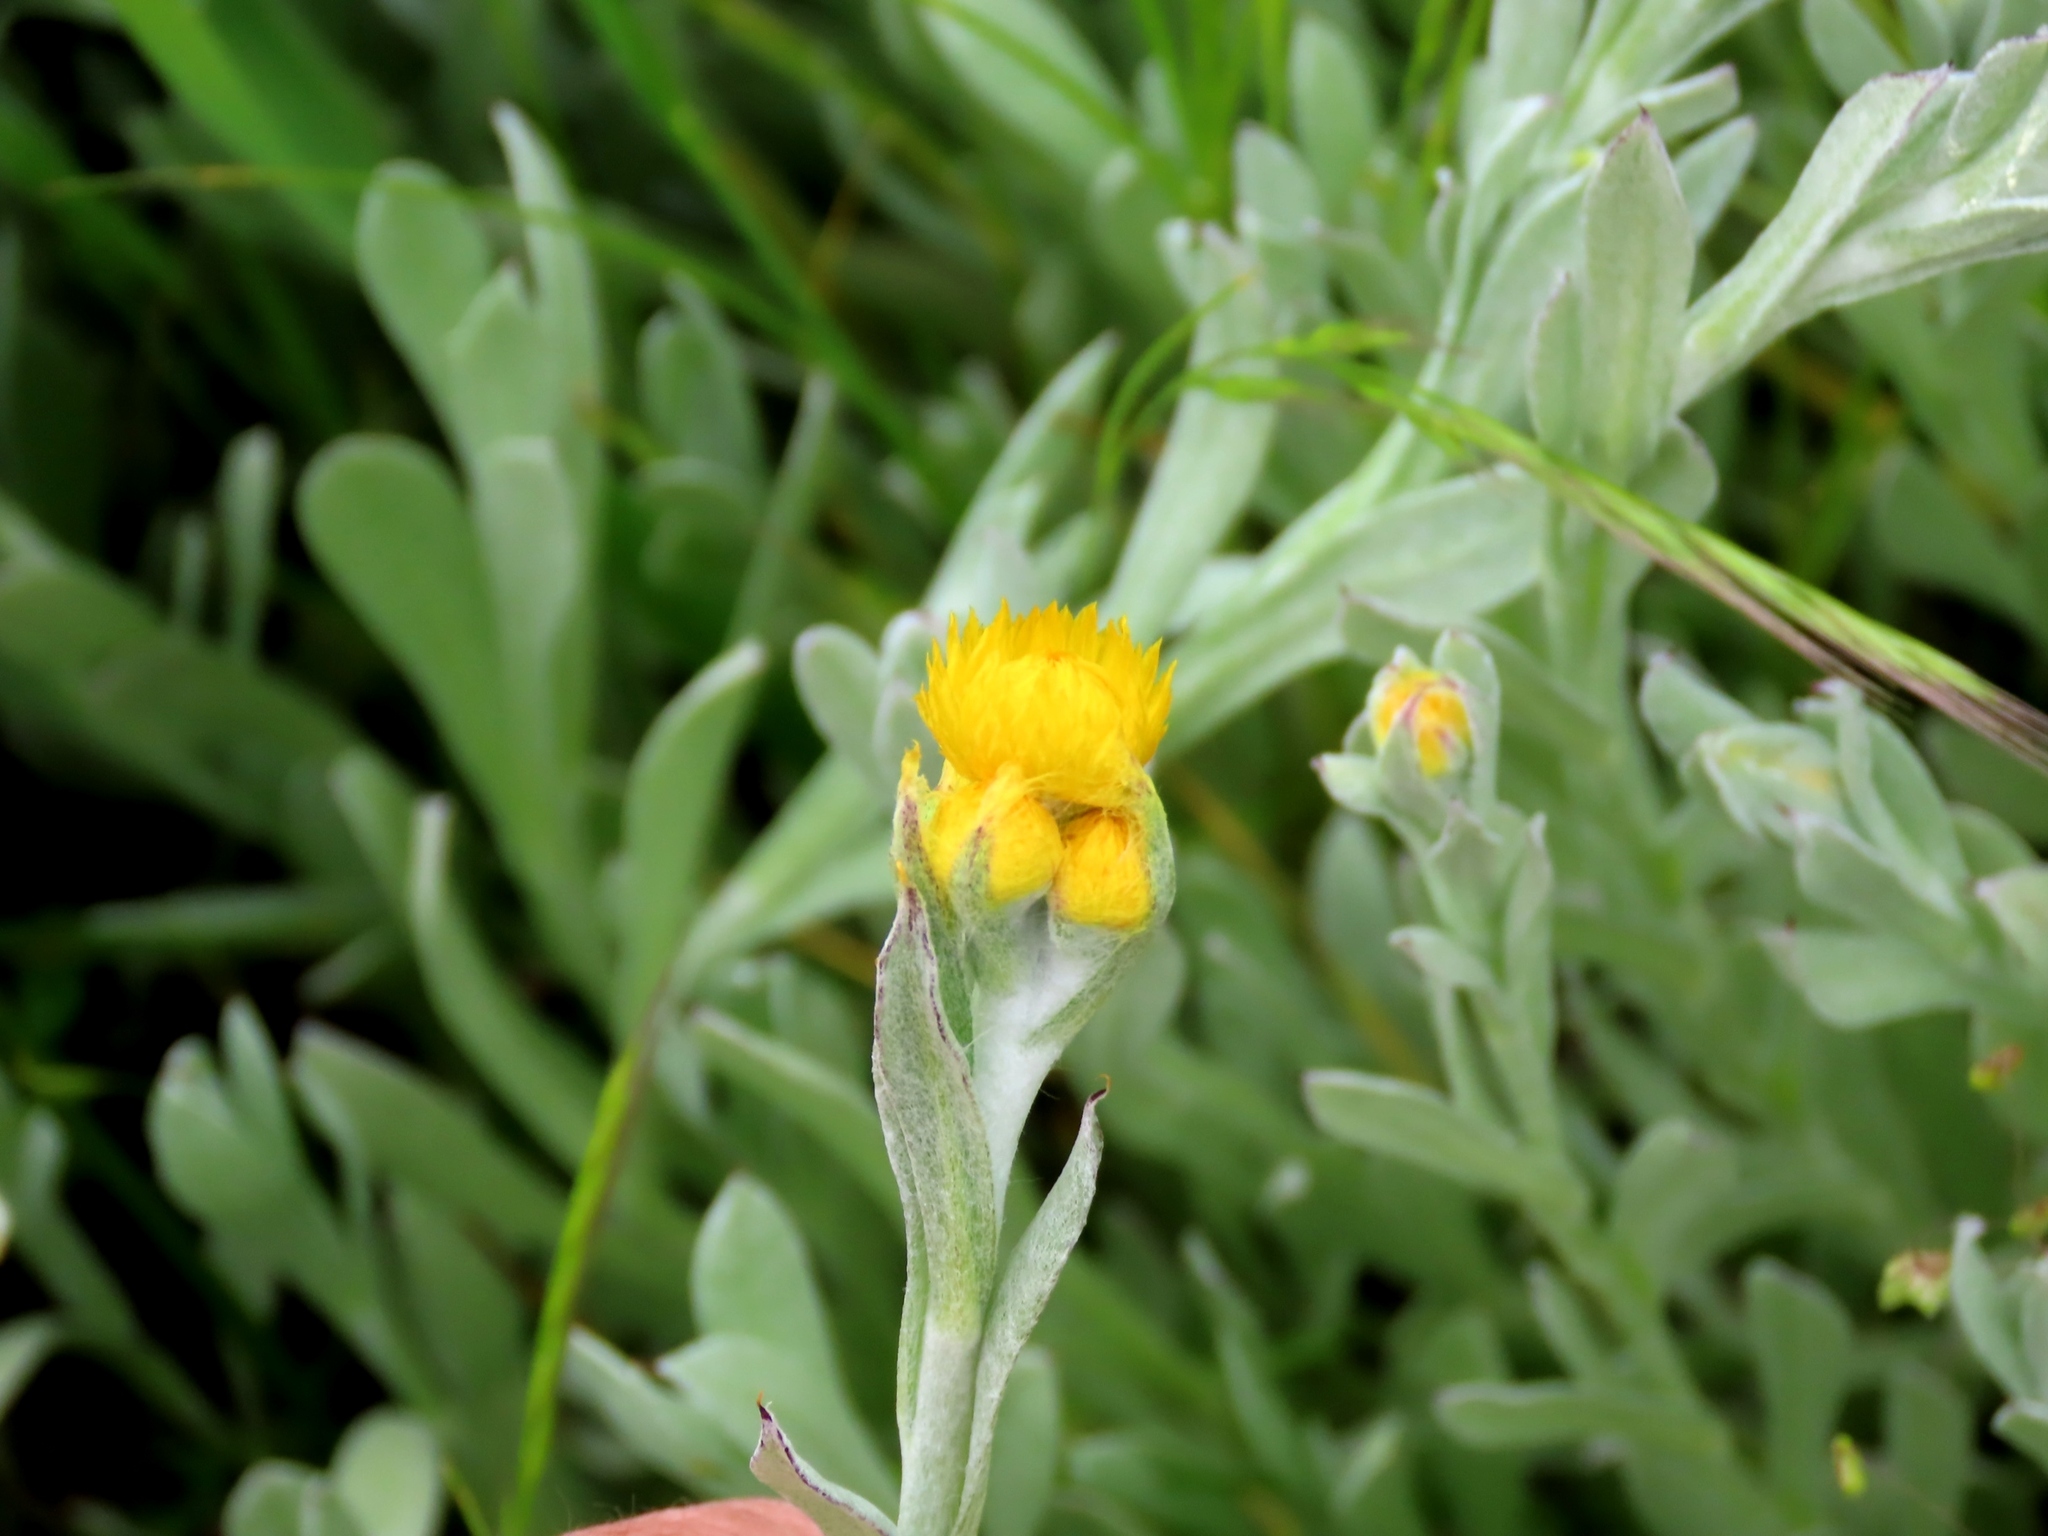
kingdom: Plantae
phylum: Tracheophyta
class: Magnoliopsida
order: Asterales
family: Asteraceae
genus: Chrysocephalum
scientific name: Chrysocephalum apiculatum
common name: Common everlasting
